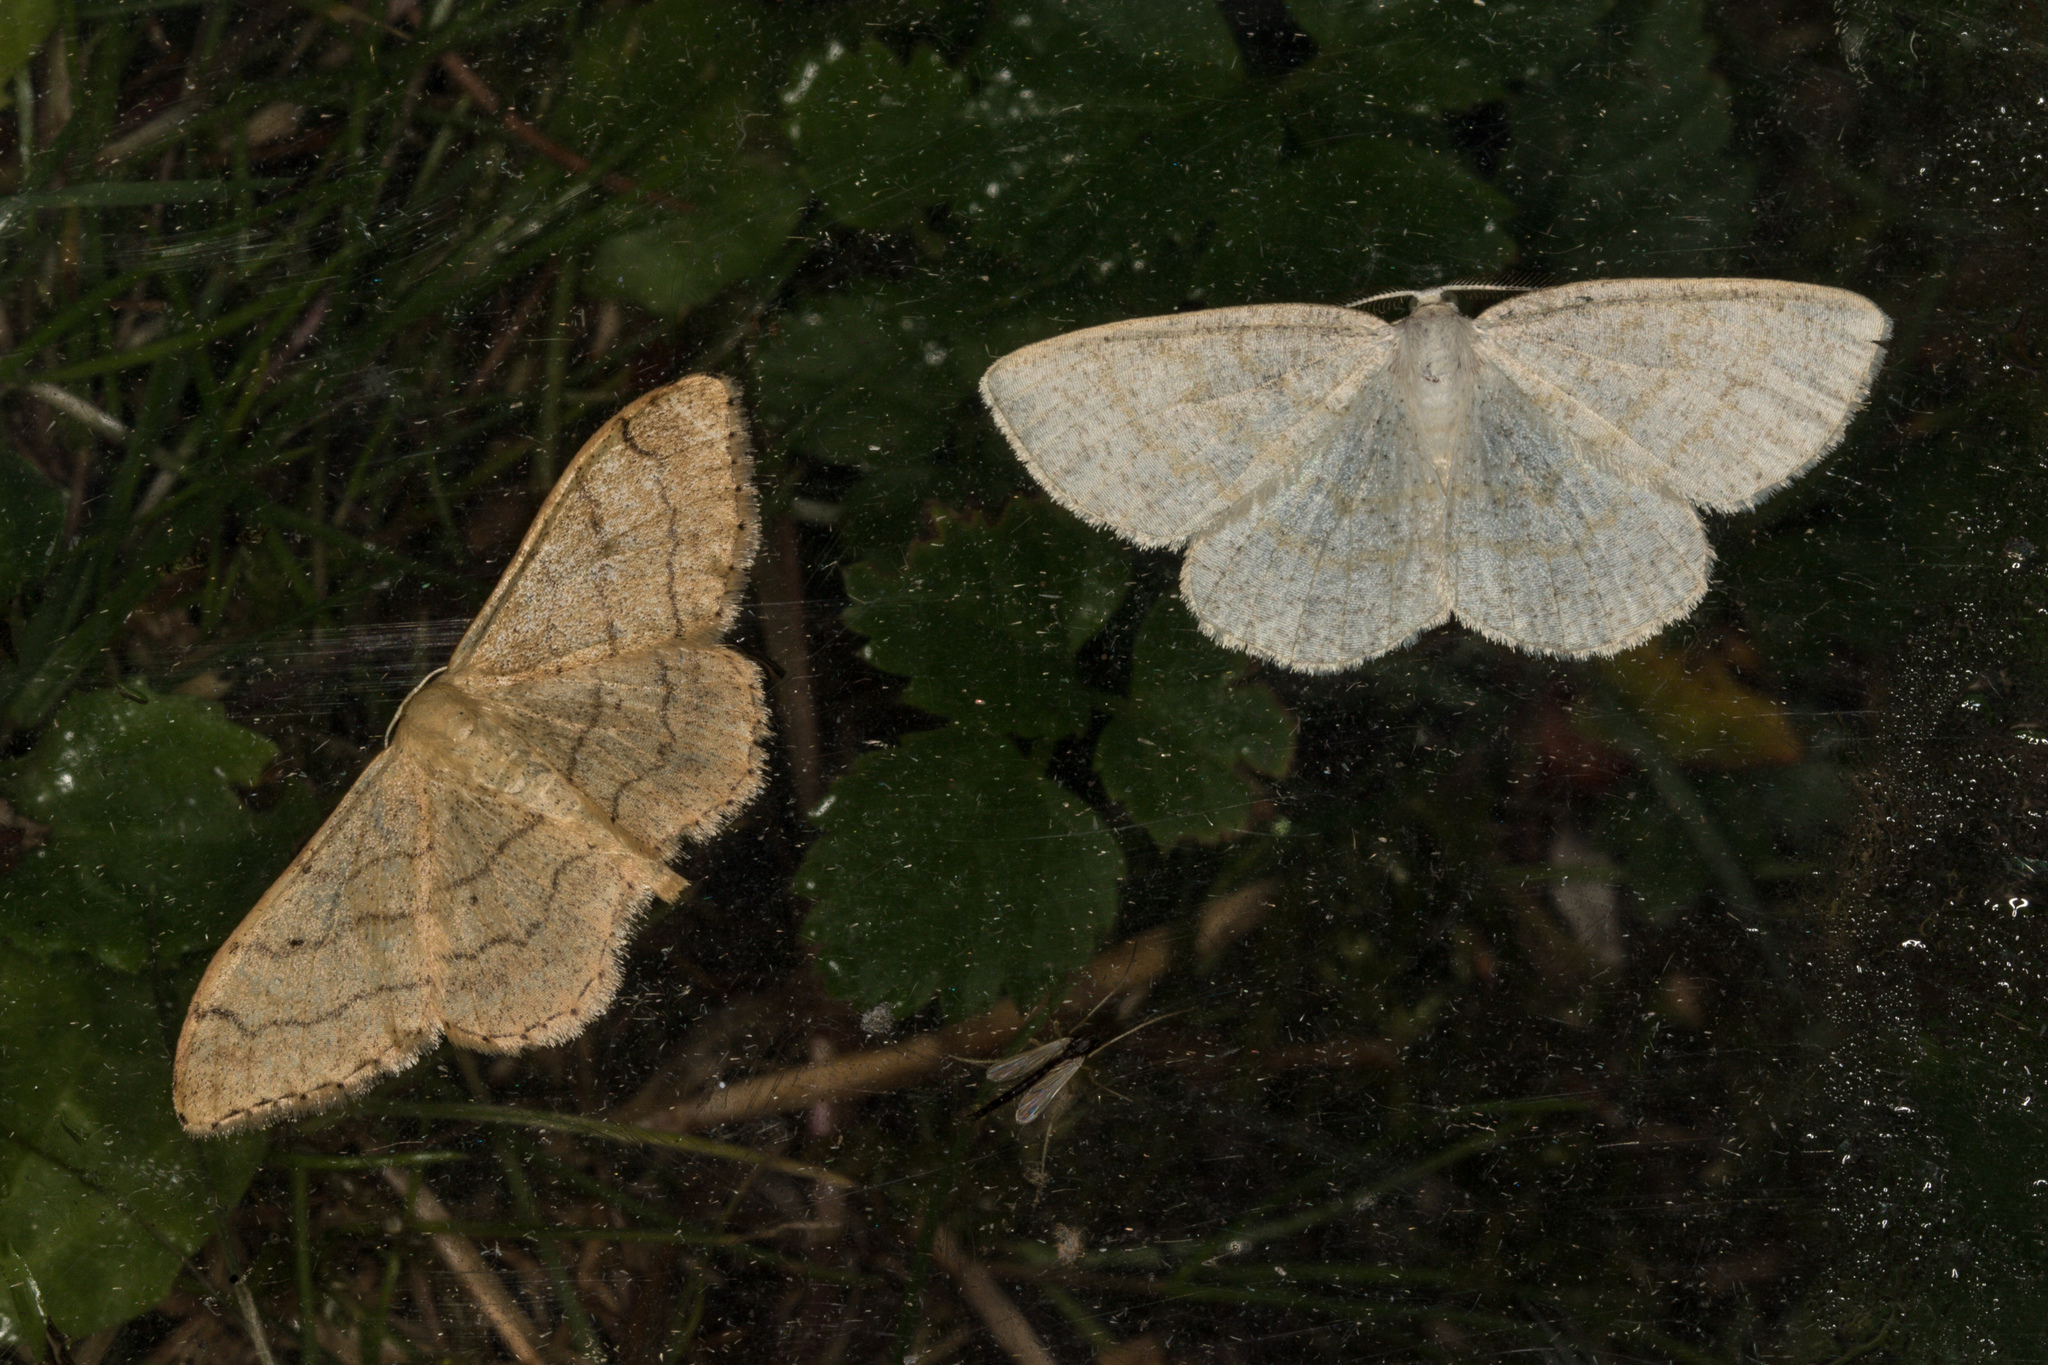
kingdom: Animalia
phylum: Arthropoda
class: Insecta
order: Lepidoptera
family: Geometridae
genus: Idaea
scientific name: Idaea aversata
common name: Riband wave
